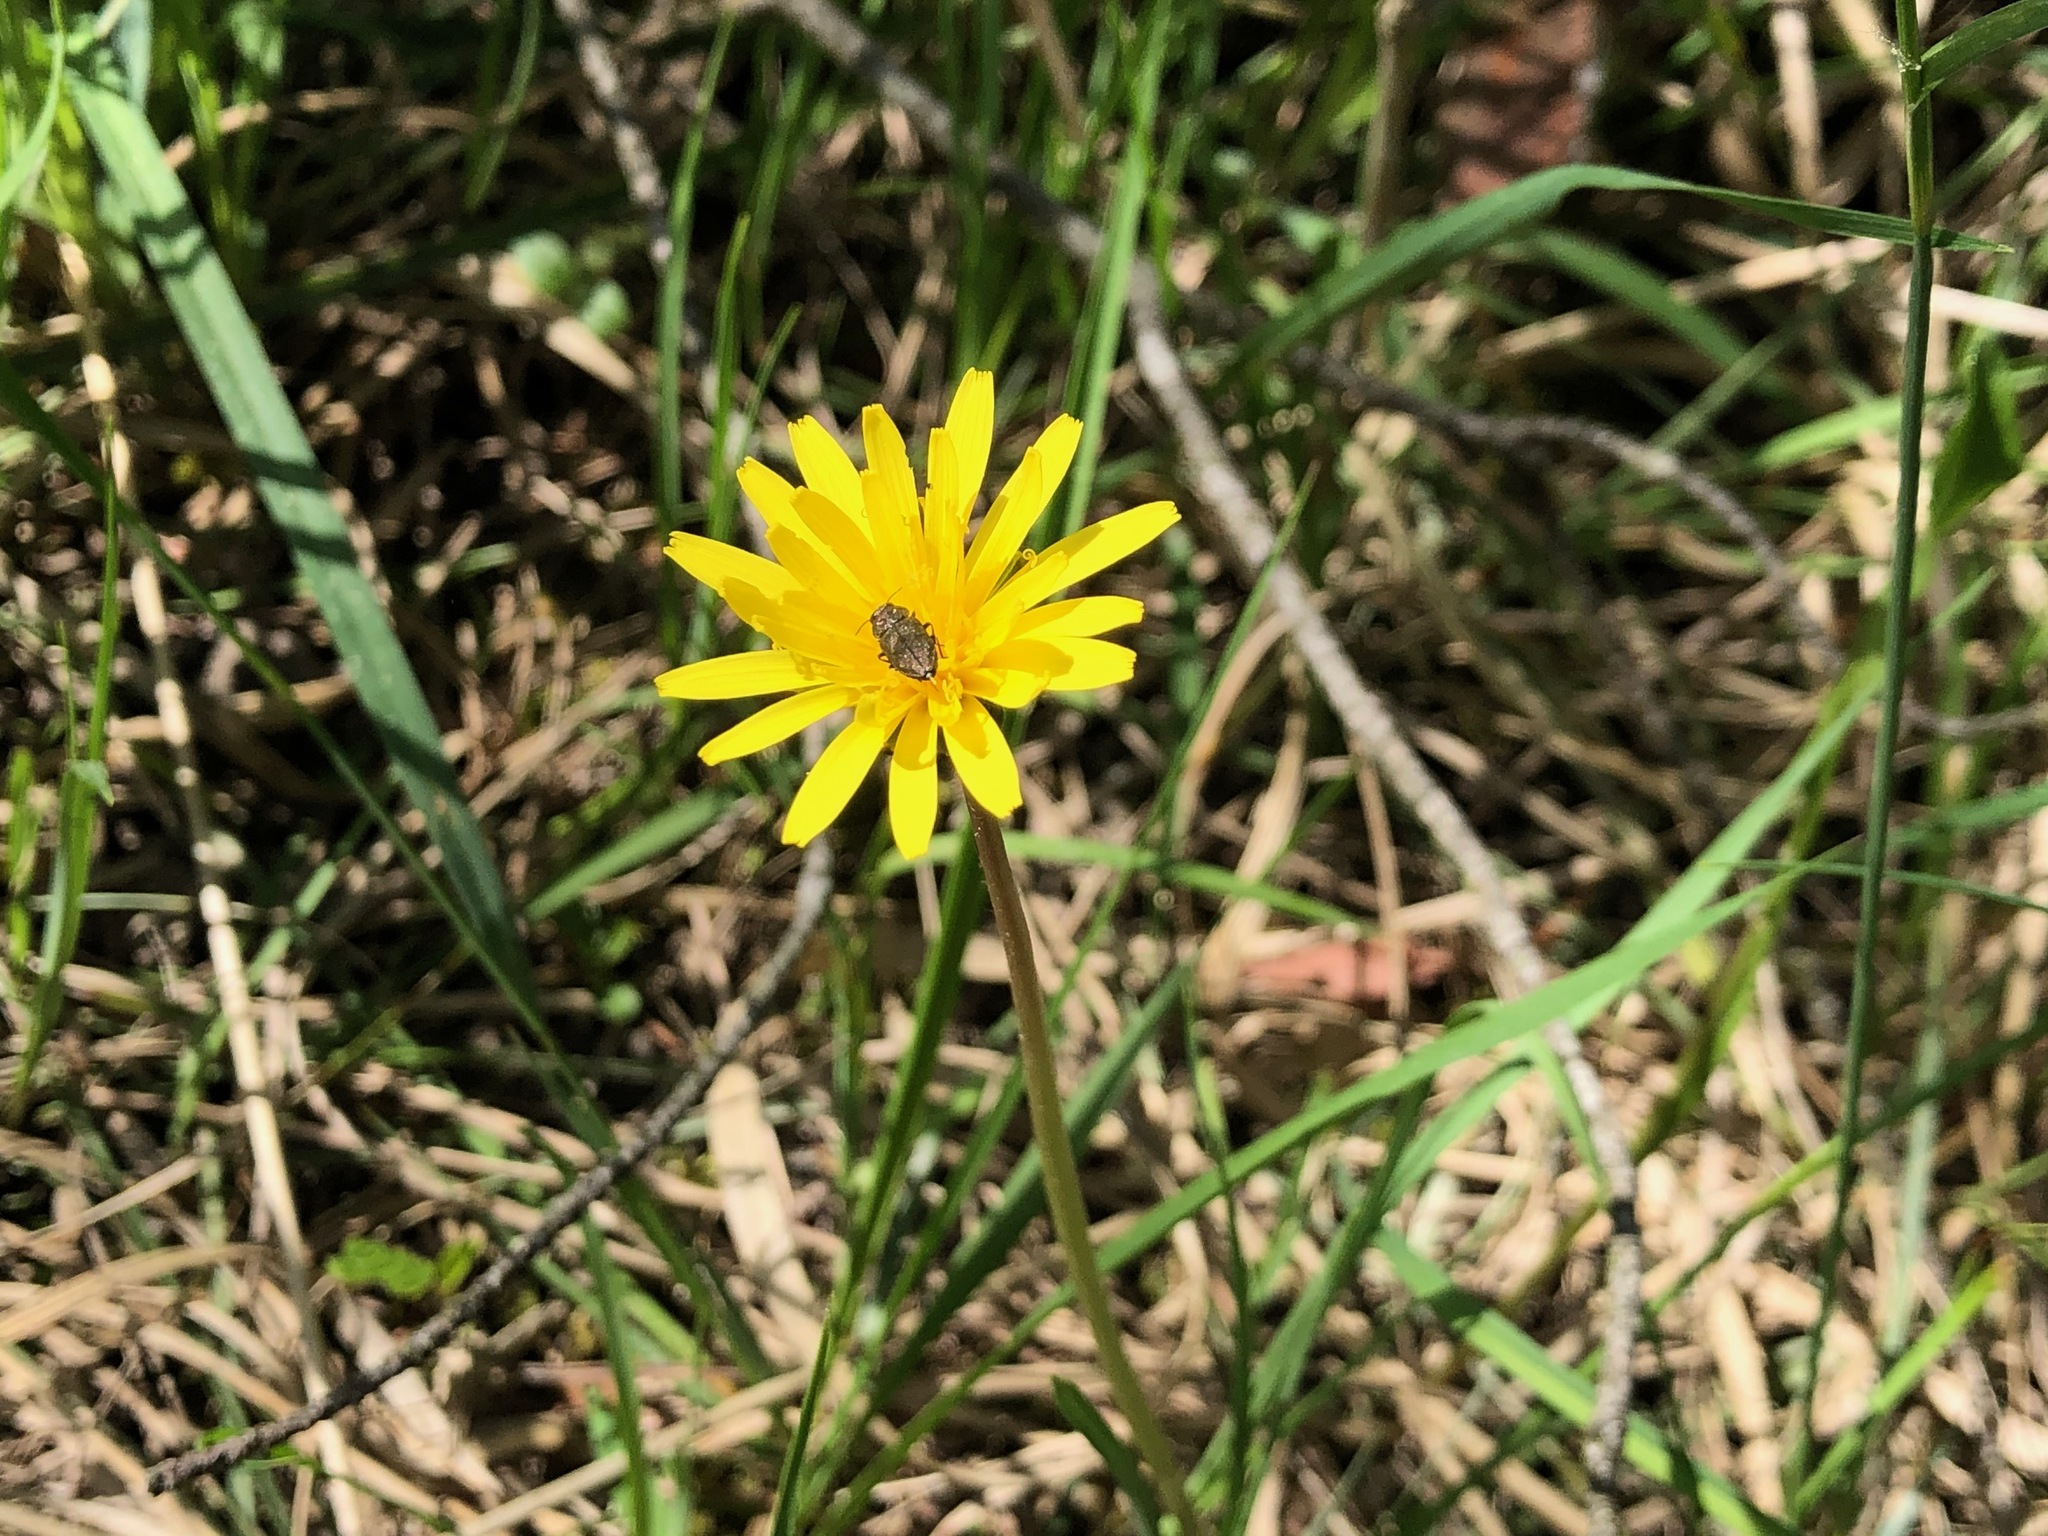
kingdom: Plantae
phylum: Tracheophyta
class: Magnoliopsida
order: Asterales
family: Asteraceae
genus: Taraxacum
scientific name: Taraxacum palustre
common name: Marsh dandelion
